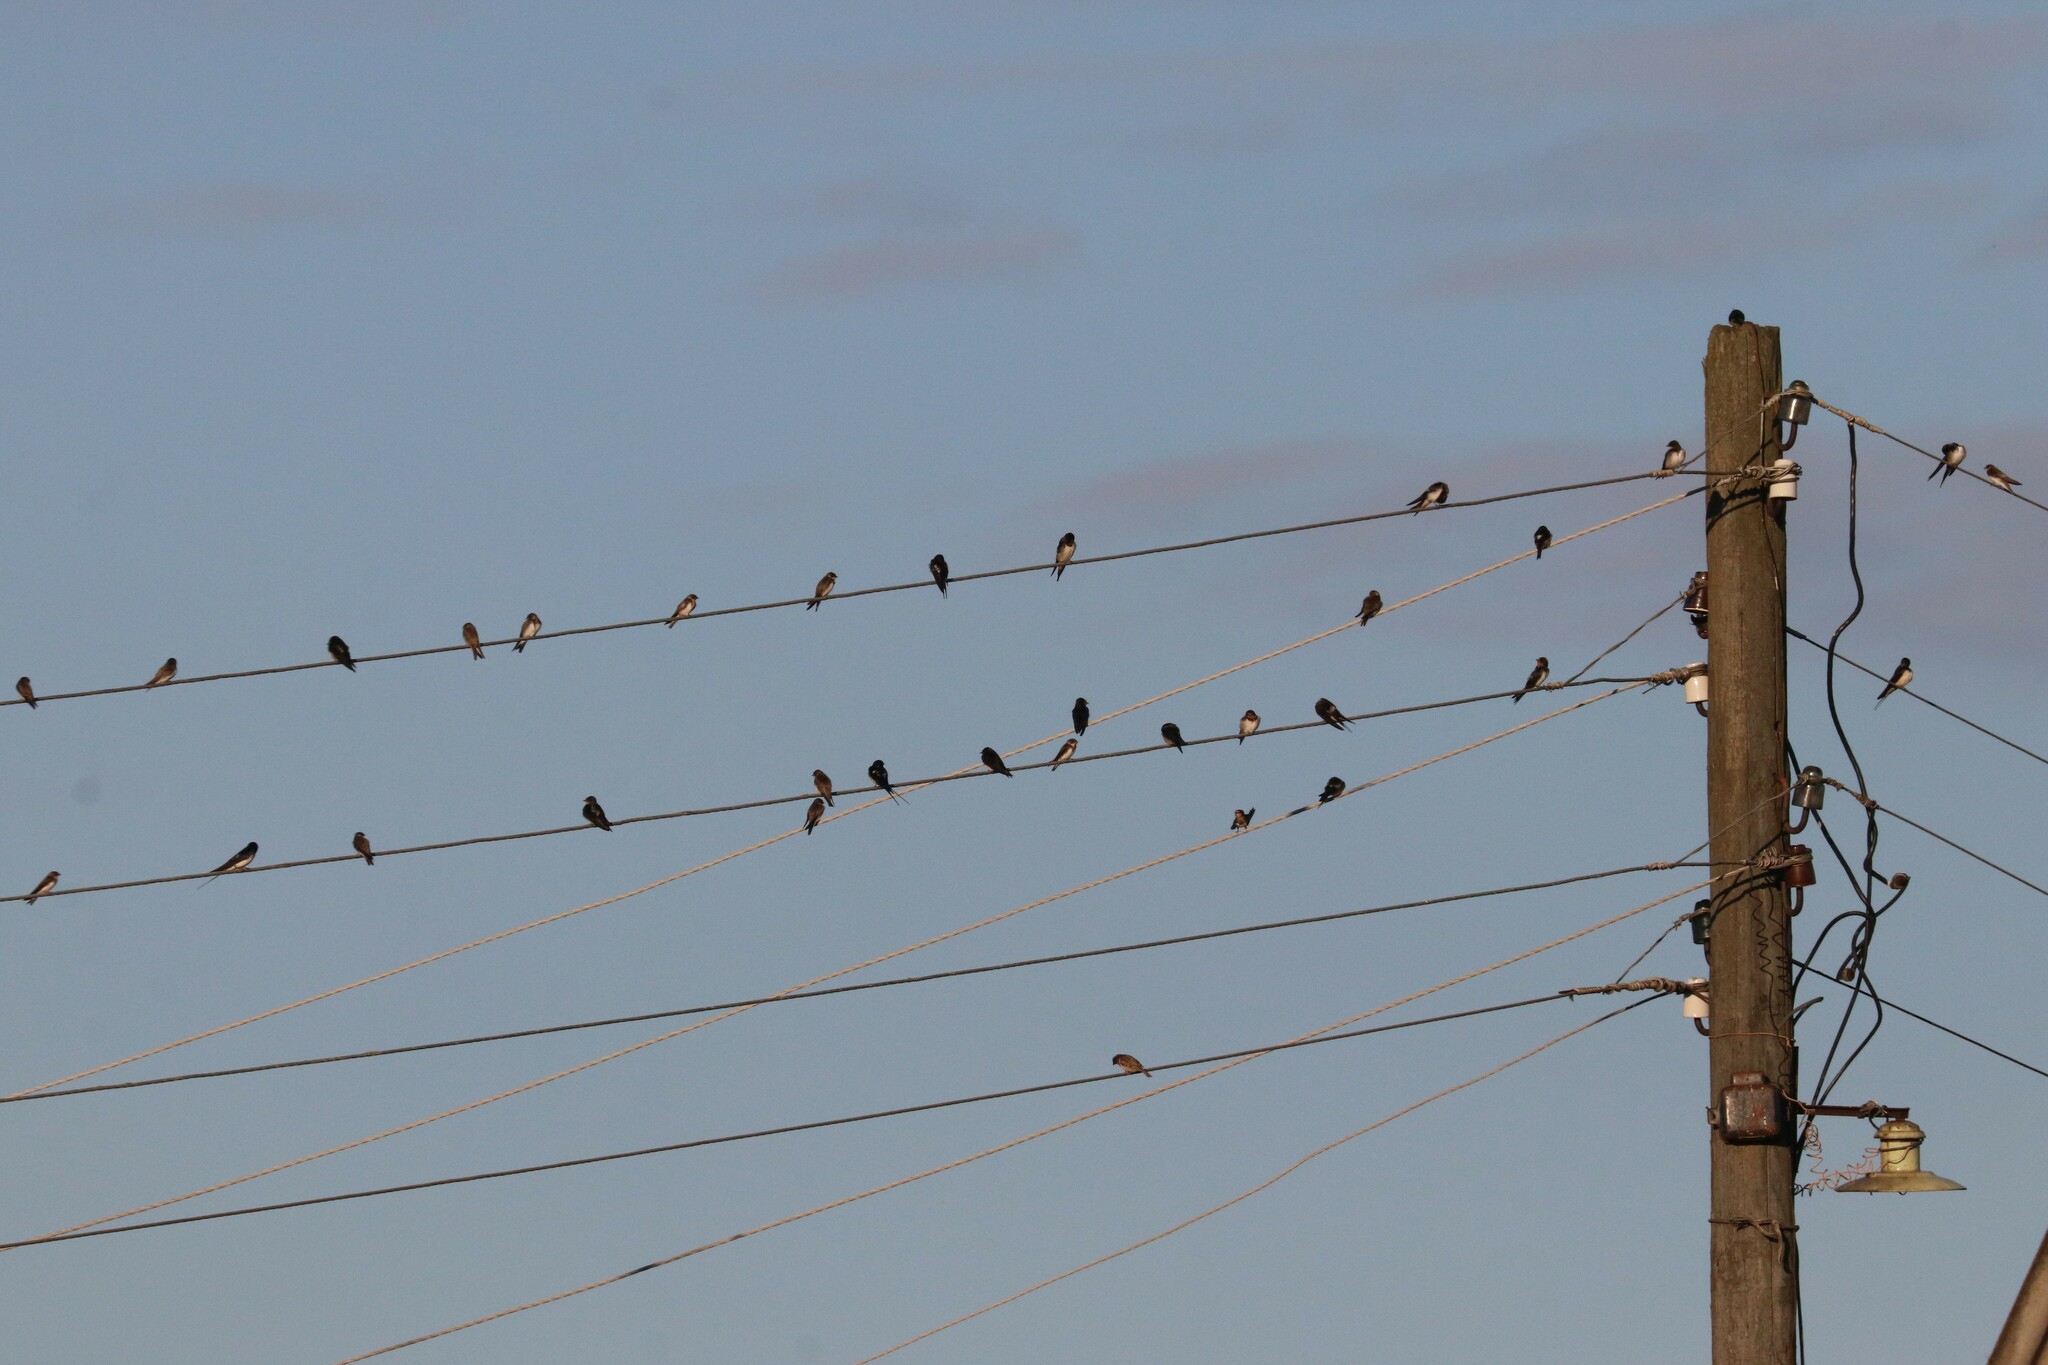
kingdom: Animalia
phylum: Chordata
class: Aves
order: Passeriformes
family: Hirundinidae
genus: Riparia
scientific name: Riparia riparia
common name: Sand martin
